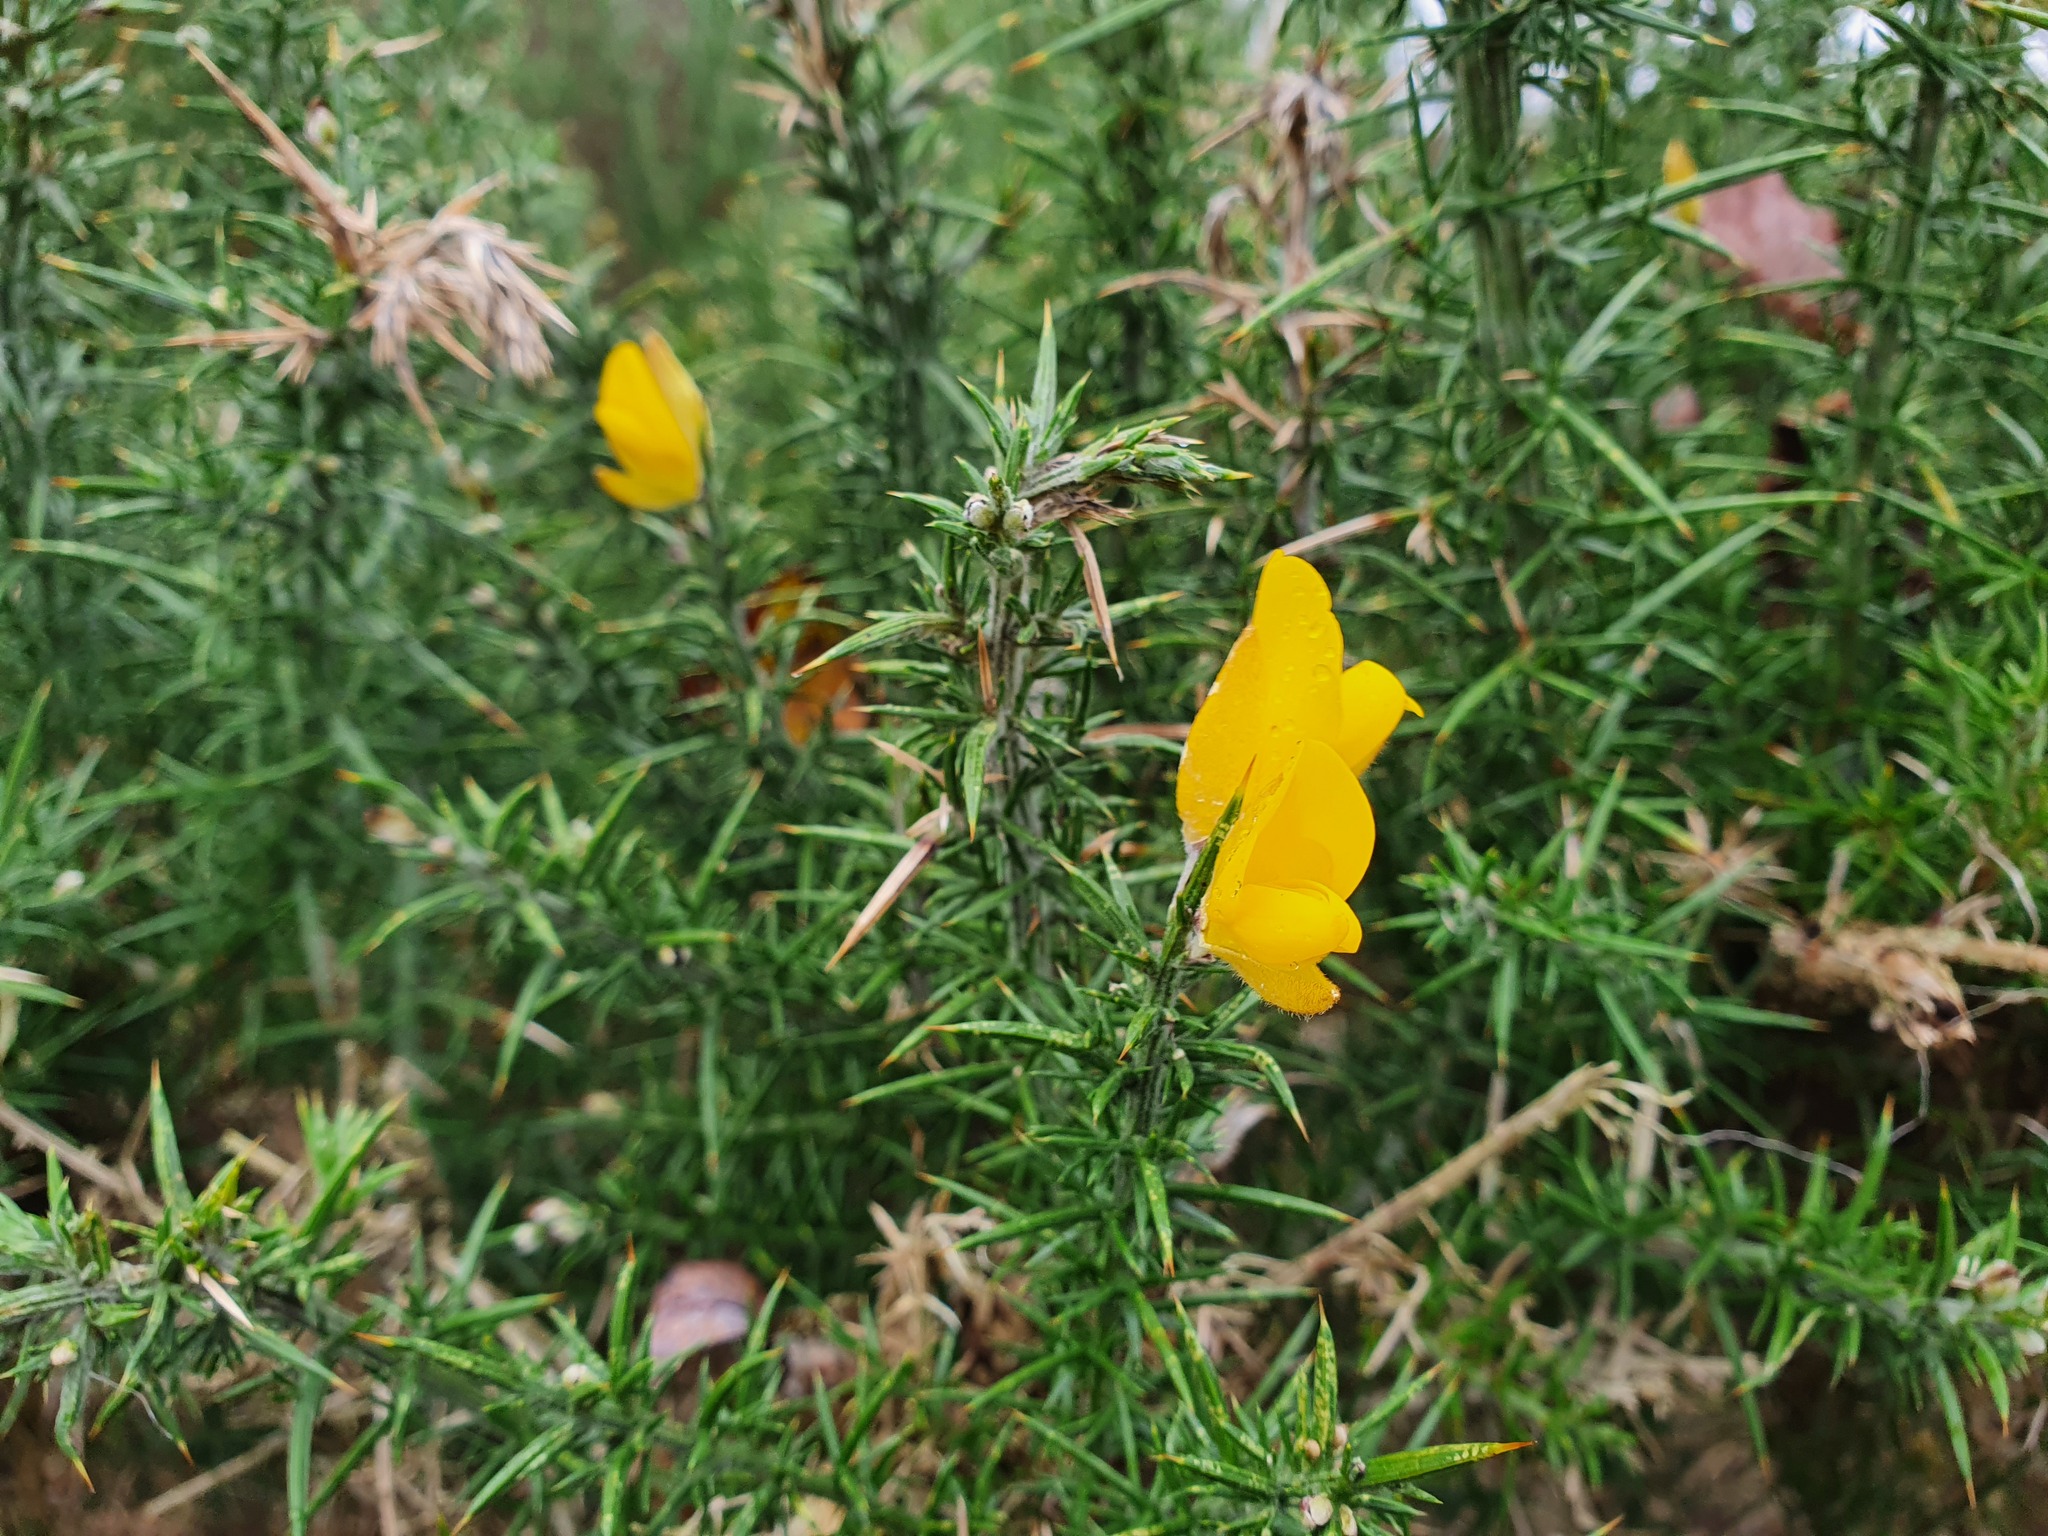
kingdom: Plantae
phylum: Tracheophyta
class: Magnoliopsida
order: Fabales
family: Fabaceae
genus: Ulex
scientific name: Ulex europaeus
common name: Common gorse
